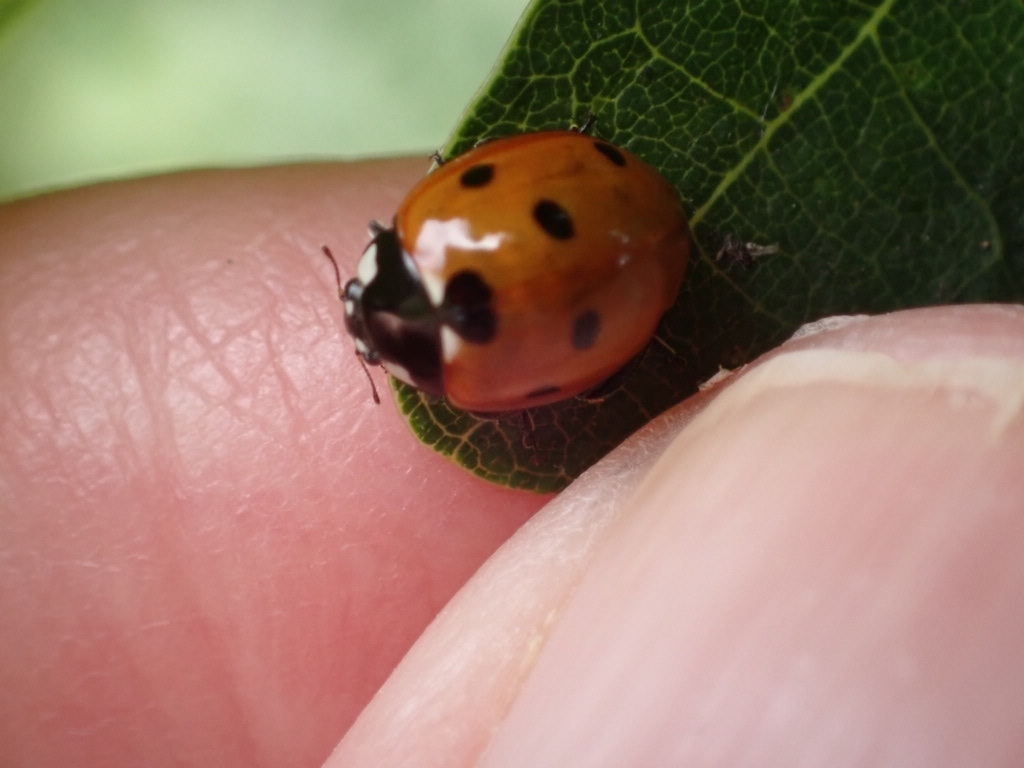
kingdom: Animalia
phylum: Arthropoda
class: Insecta
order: Coleoptera
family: Coccinellidae
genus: Coccinella
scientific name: Coccinella septempunctata
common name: Sevenspotted lady beetle
